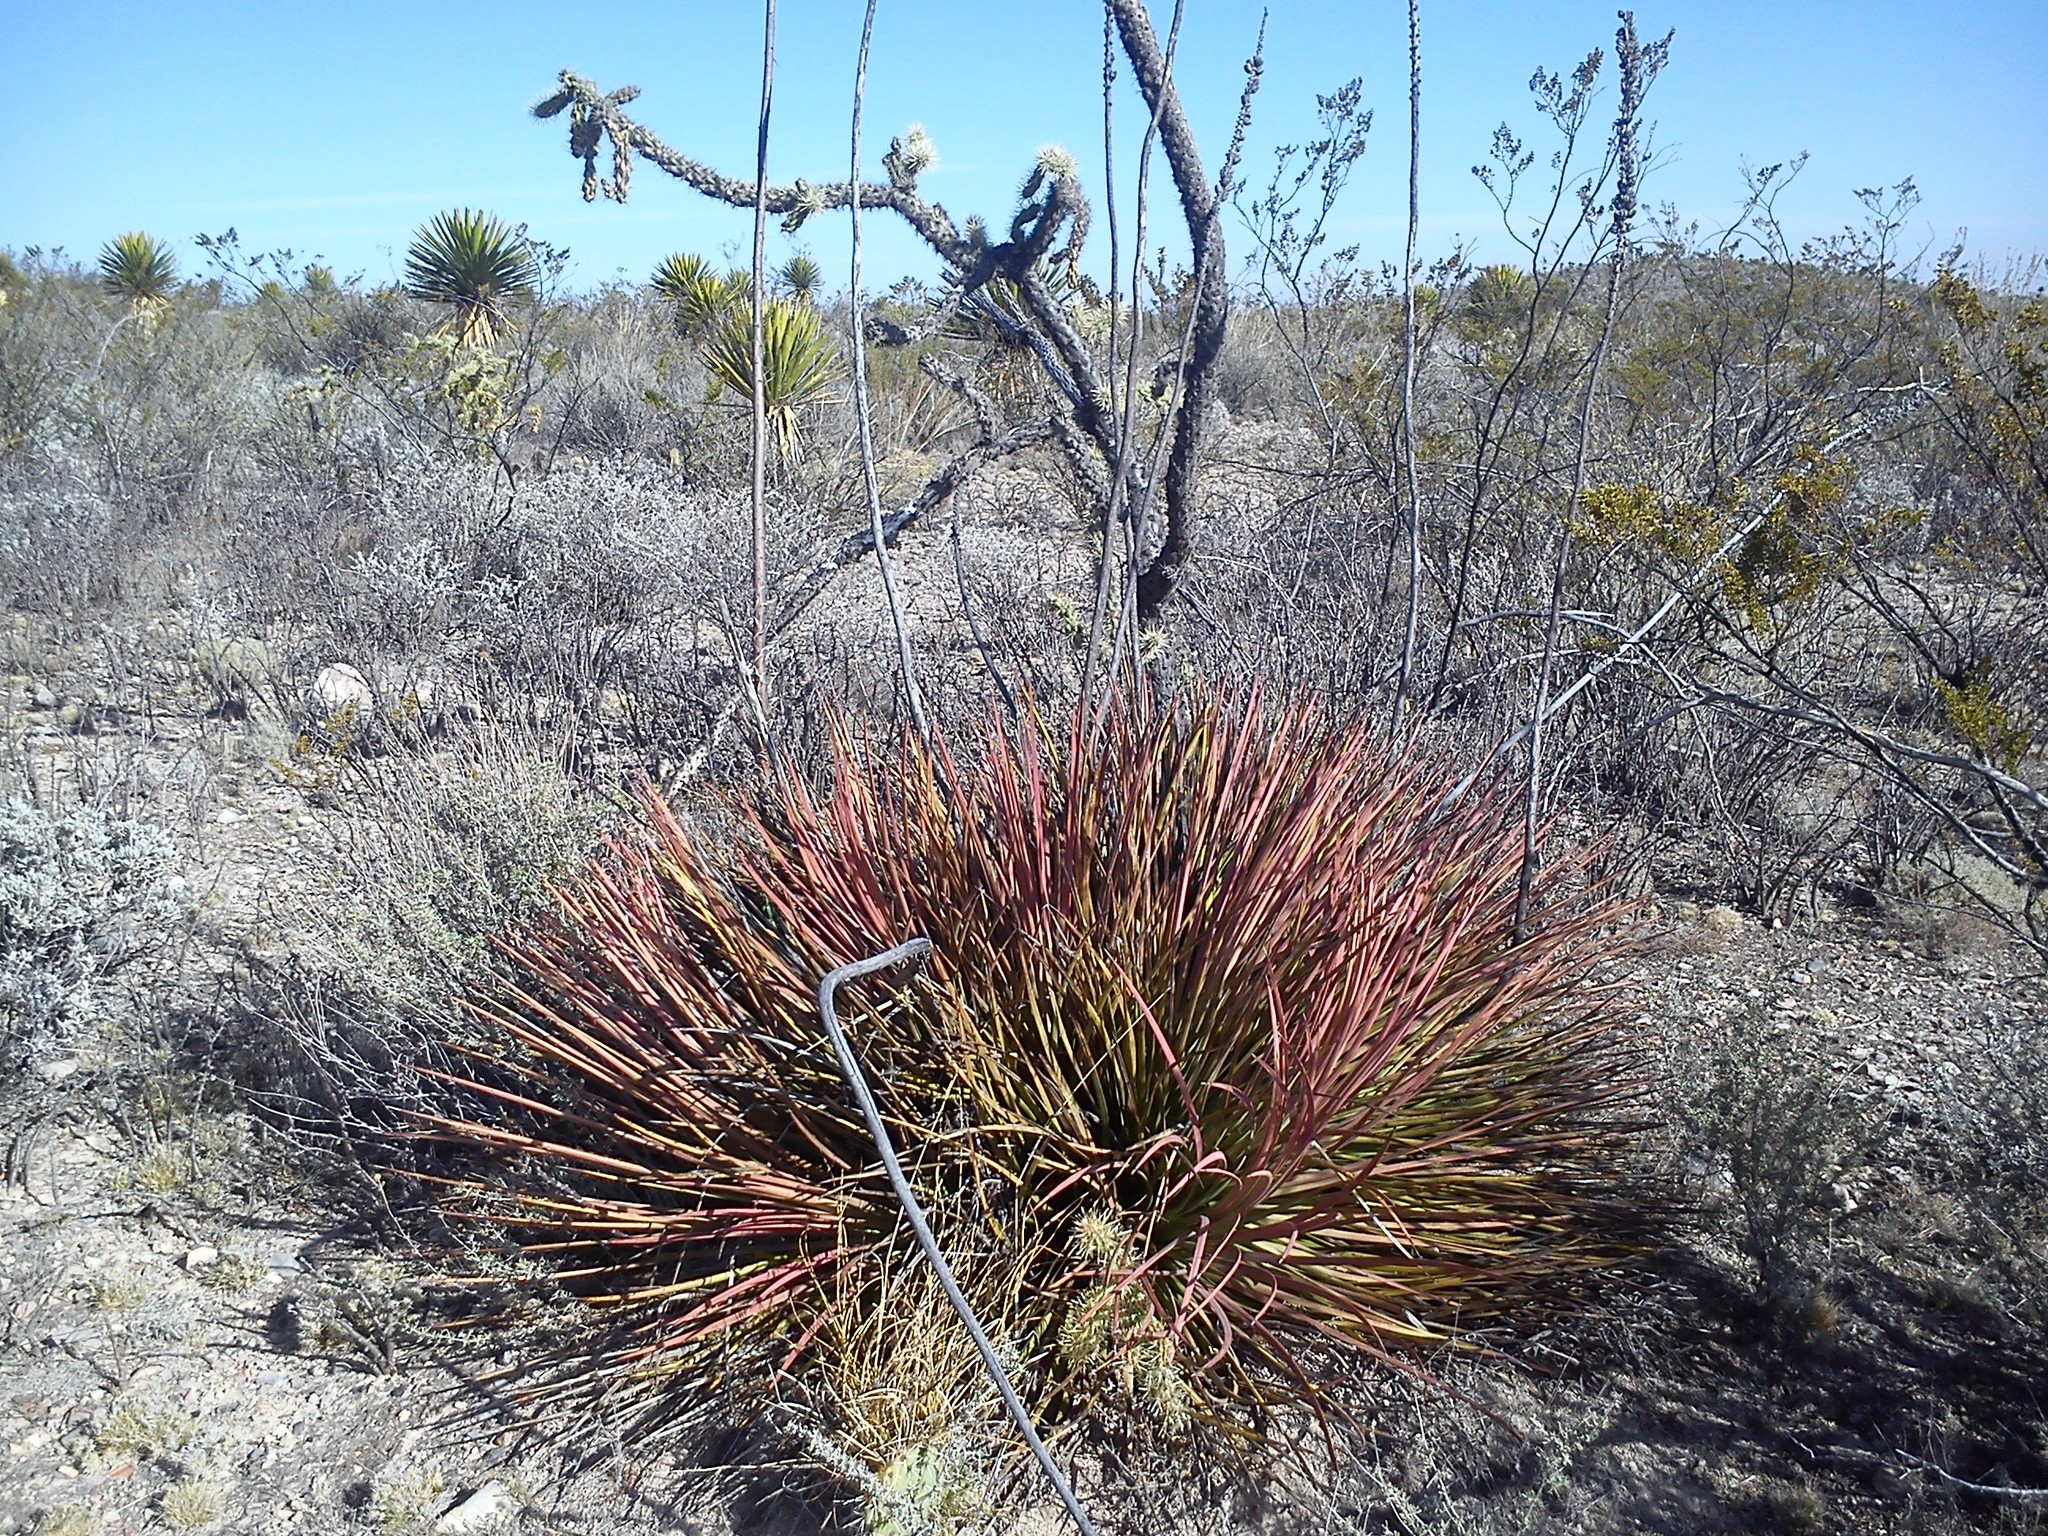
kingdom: Plantae
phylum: Tracheophyta
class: Liliopsida
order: Asparagales
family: Asparagaceae
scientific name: Asparagaceae
